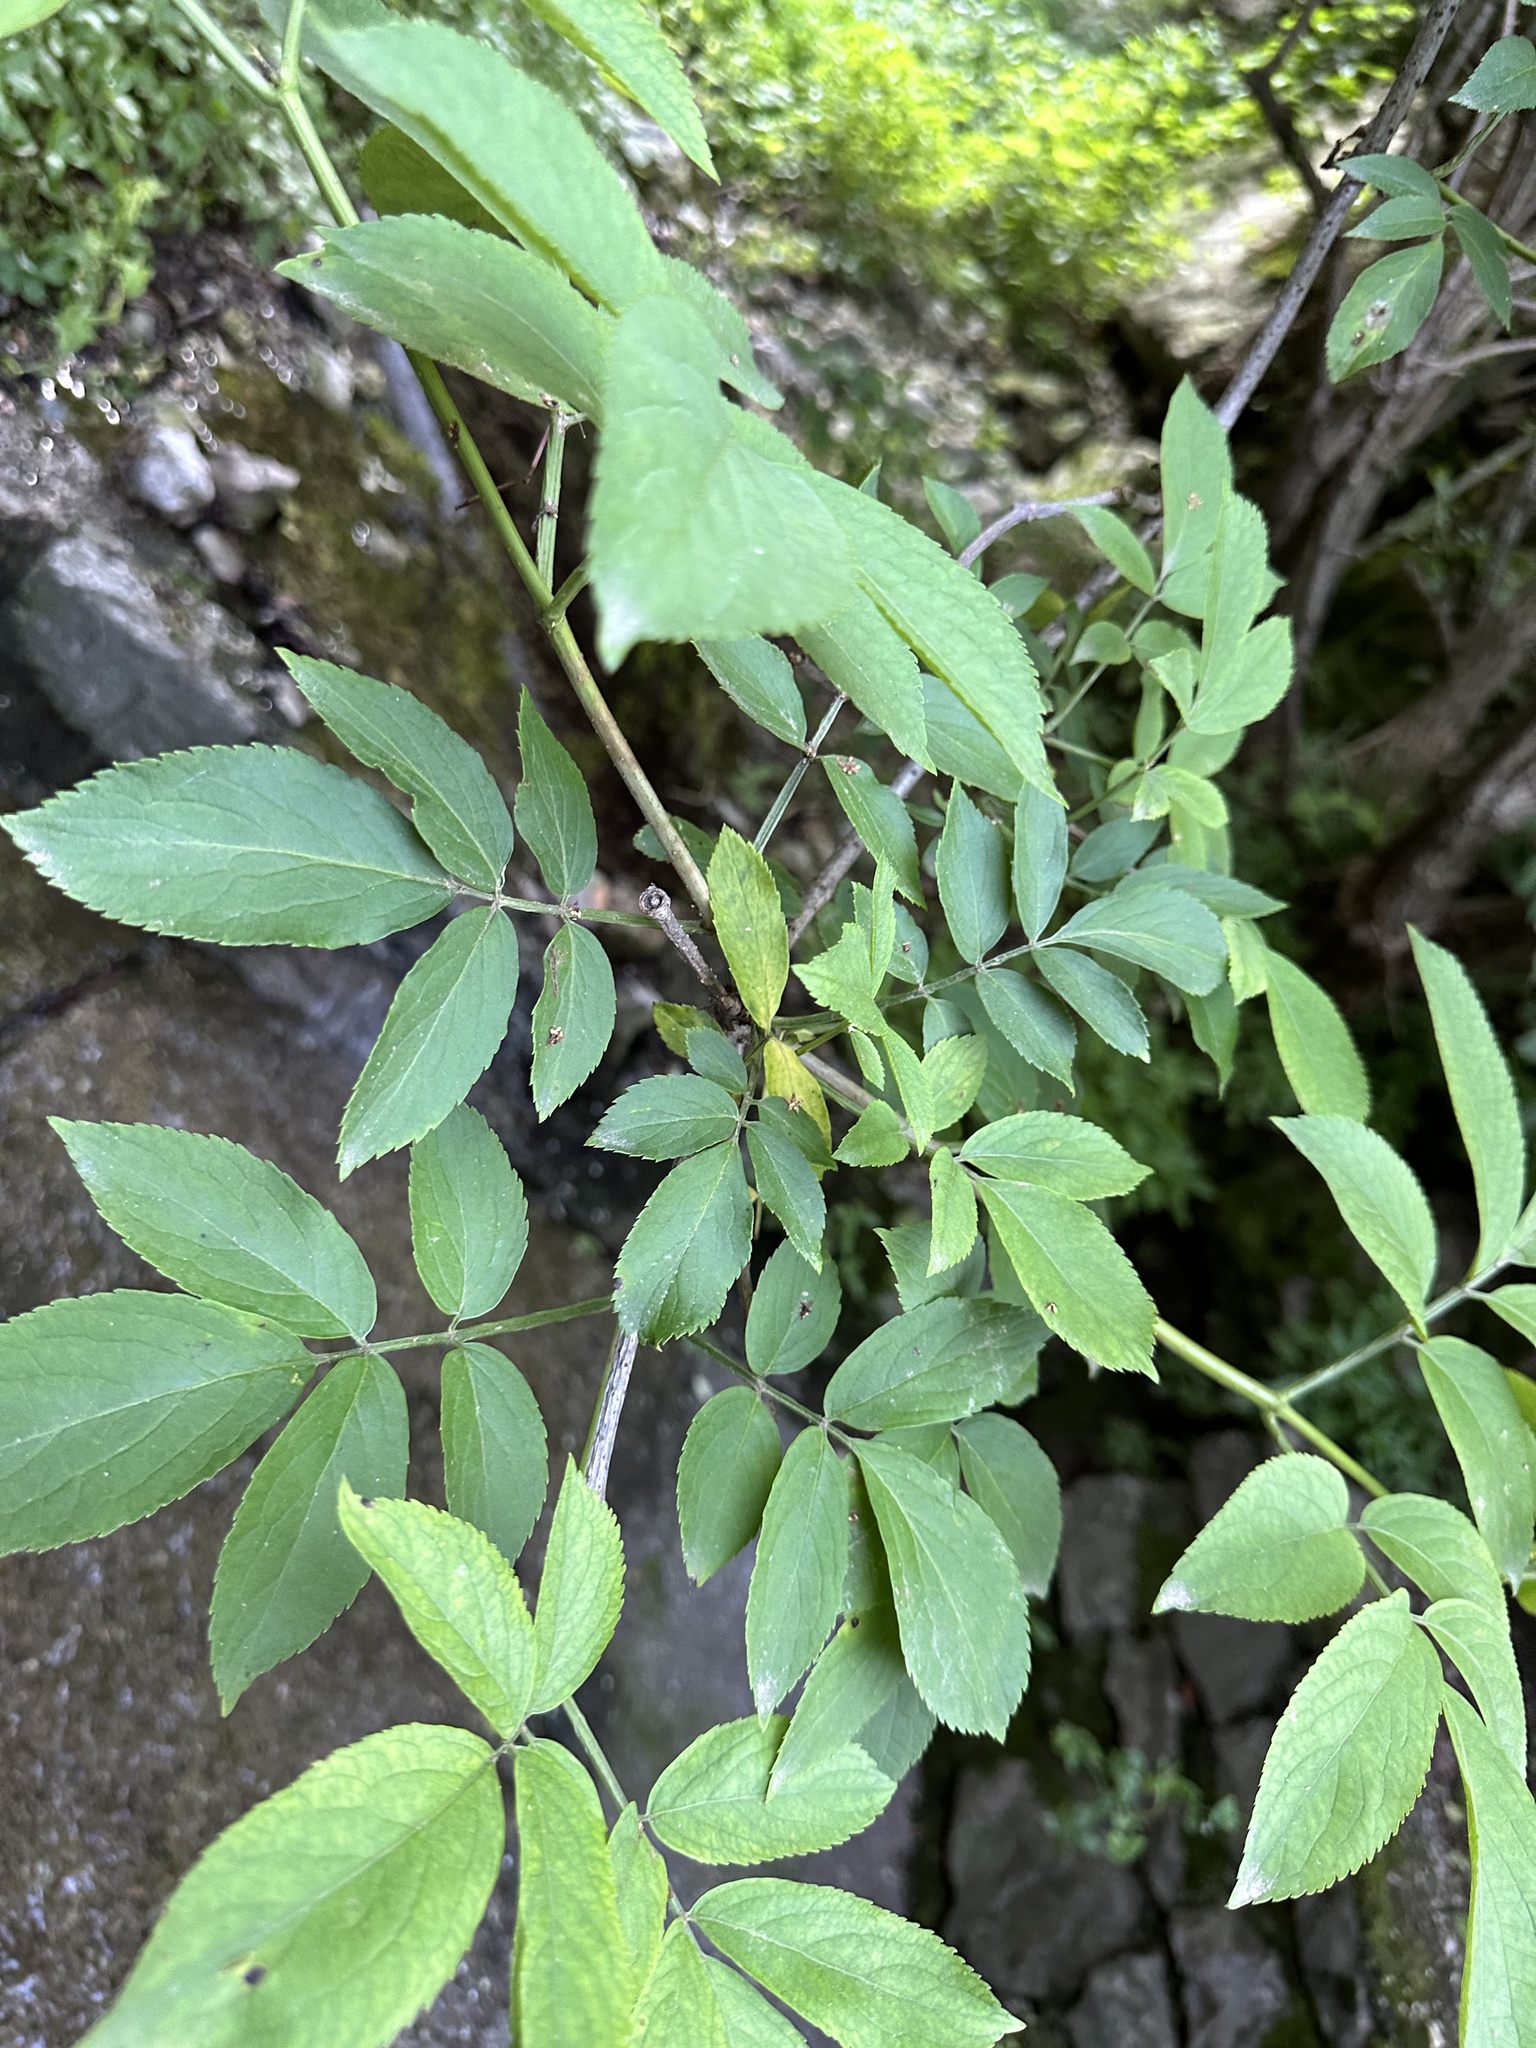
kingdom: Plantae
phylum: Tracheophyta
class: Magnoliopsida
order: Dipsacales
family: Viburnaceae
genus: Sambucus
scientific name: Sambucus nigra
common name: Elder
